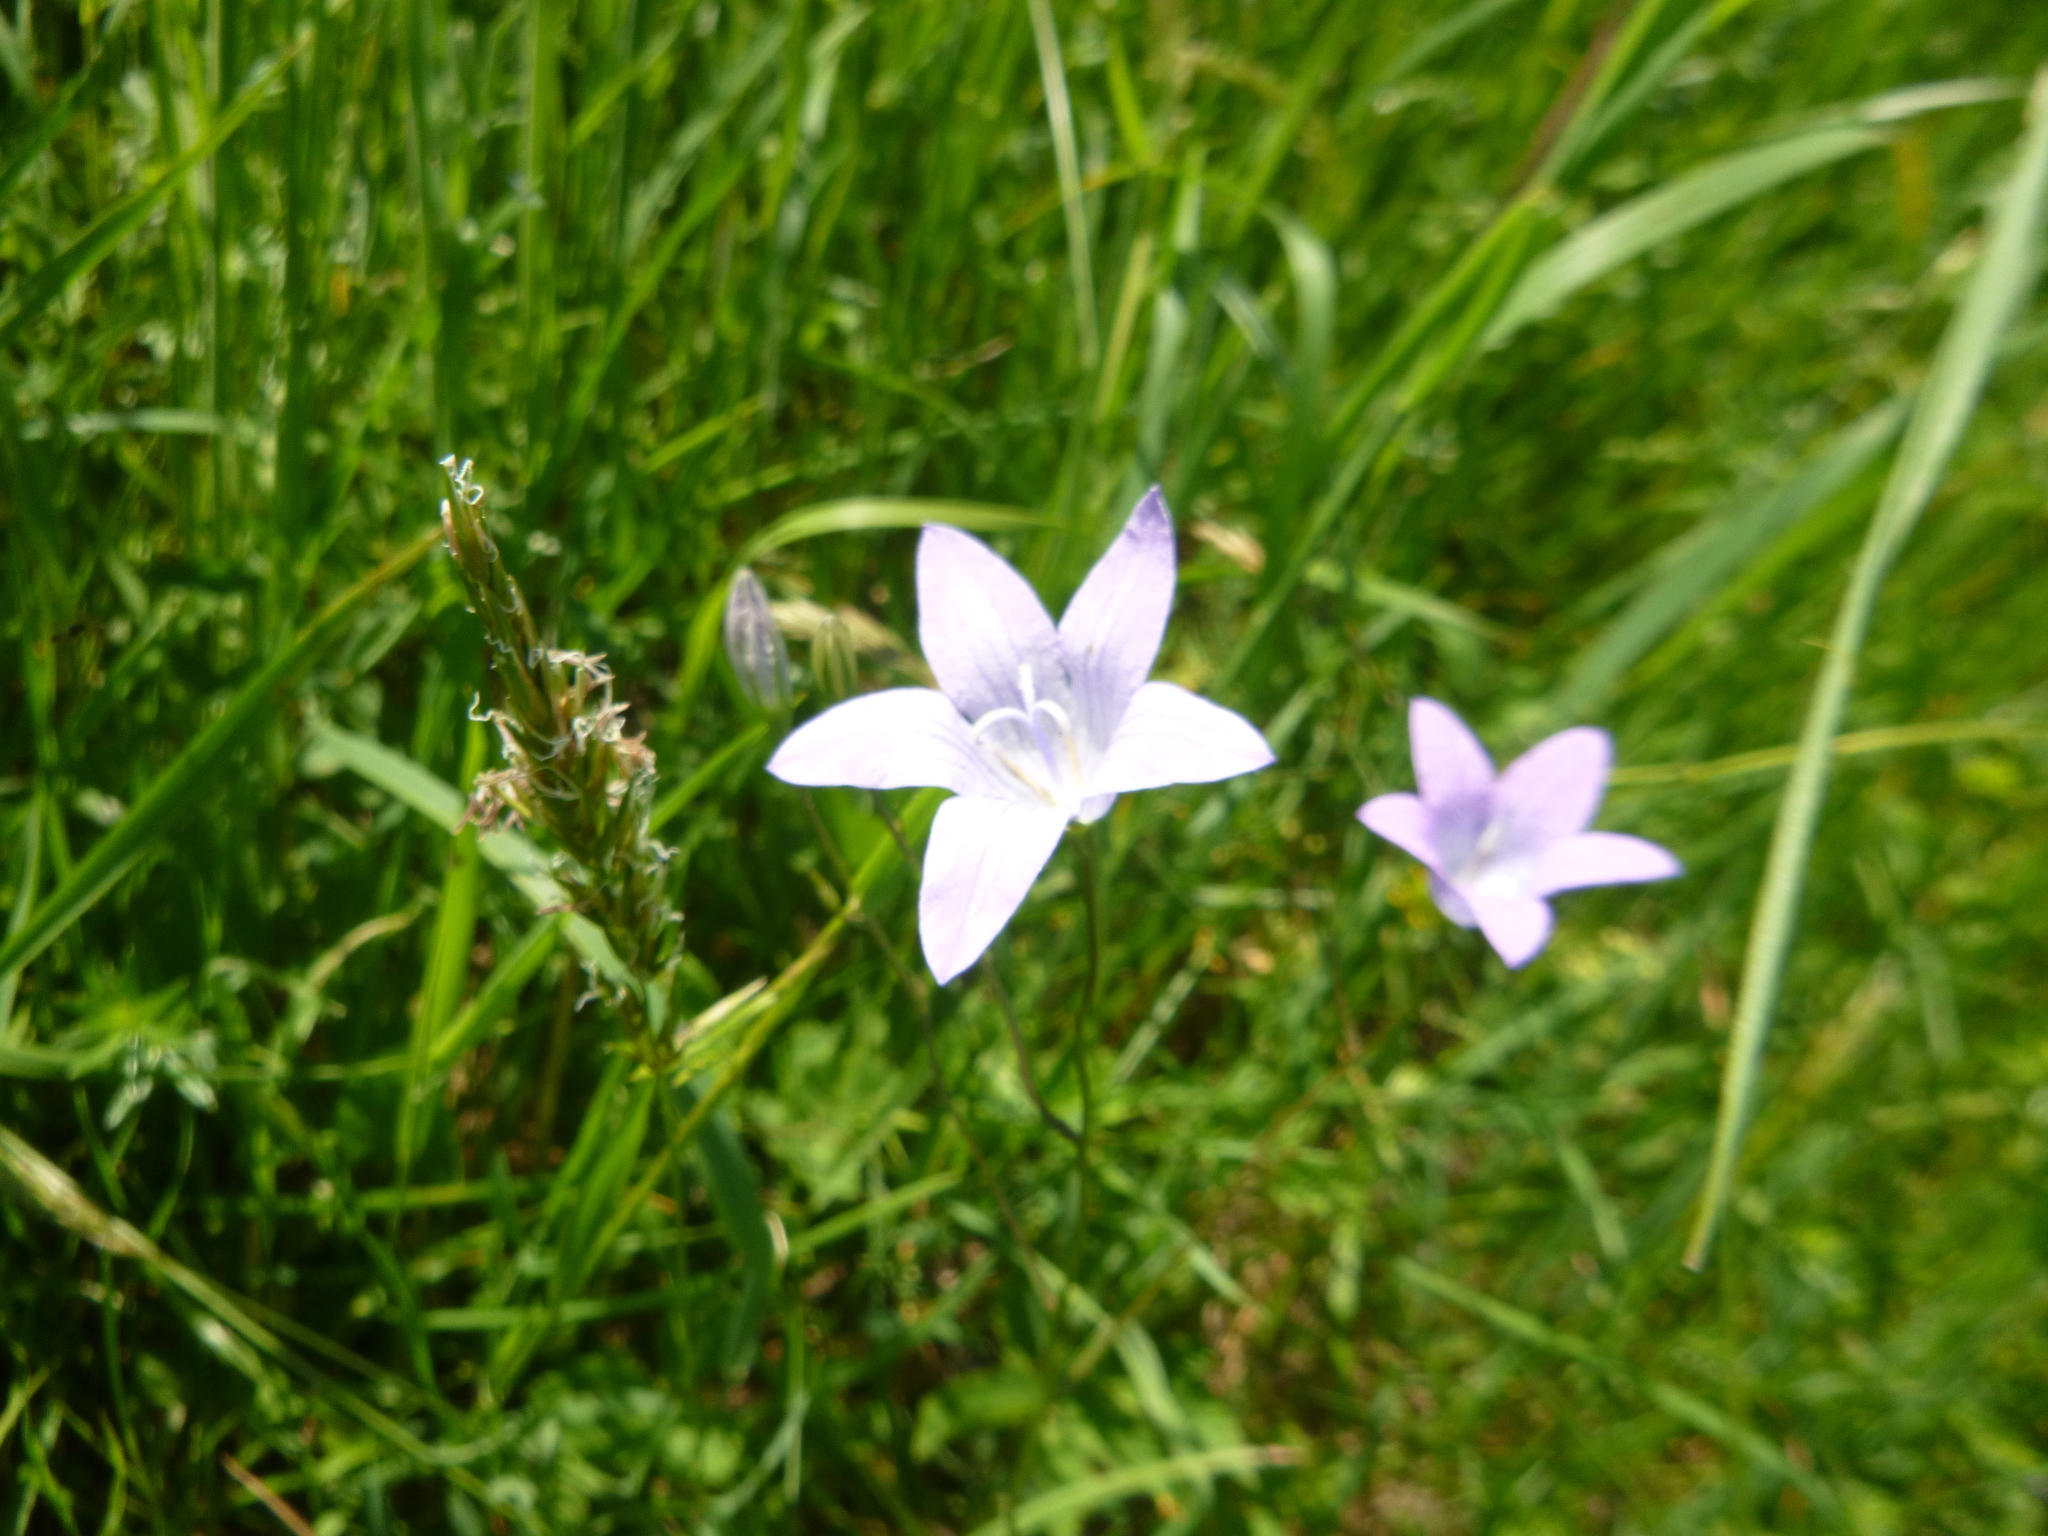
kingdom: Plantae
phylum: Tracheophyta
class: Magnoliopsida
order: Asterales
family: Campanulaceae
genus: Campanula
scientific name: Campanula patula
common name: Spreading bellflower
